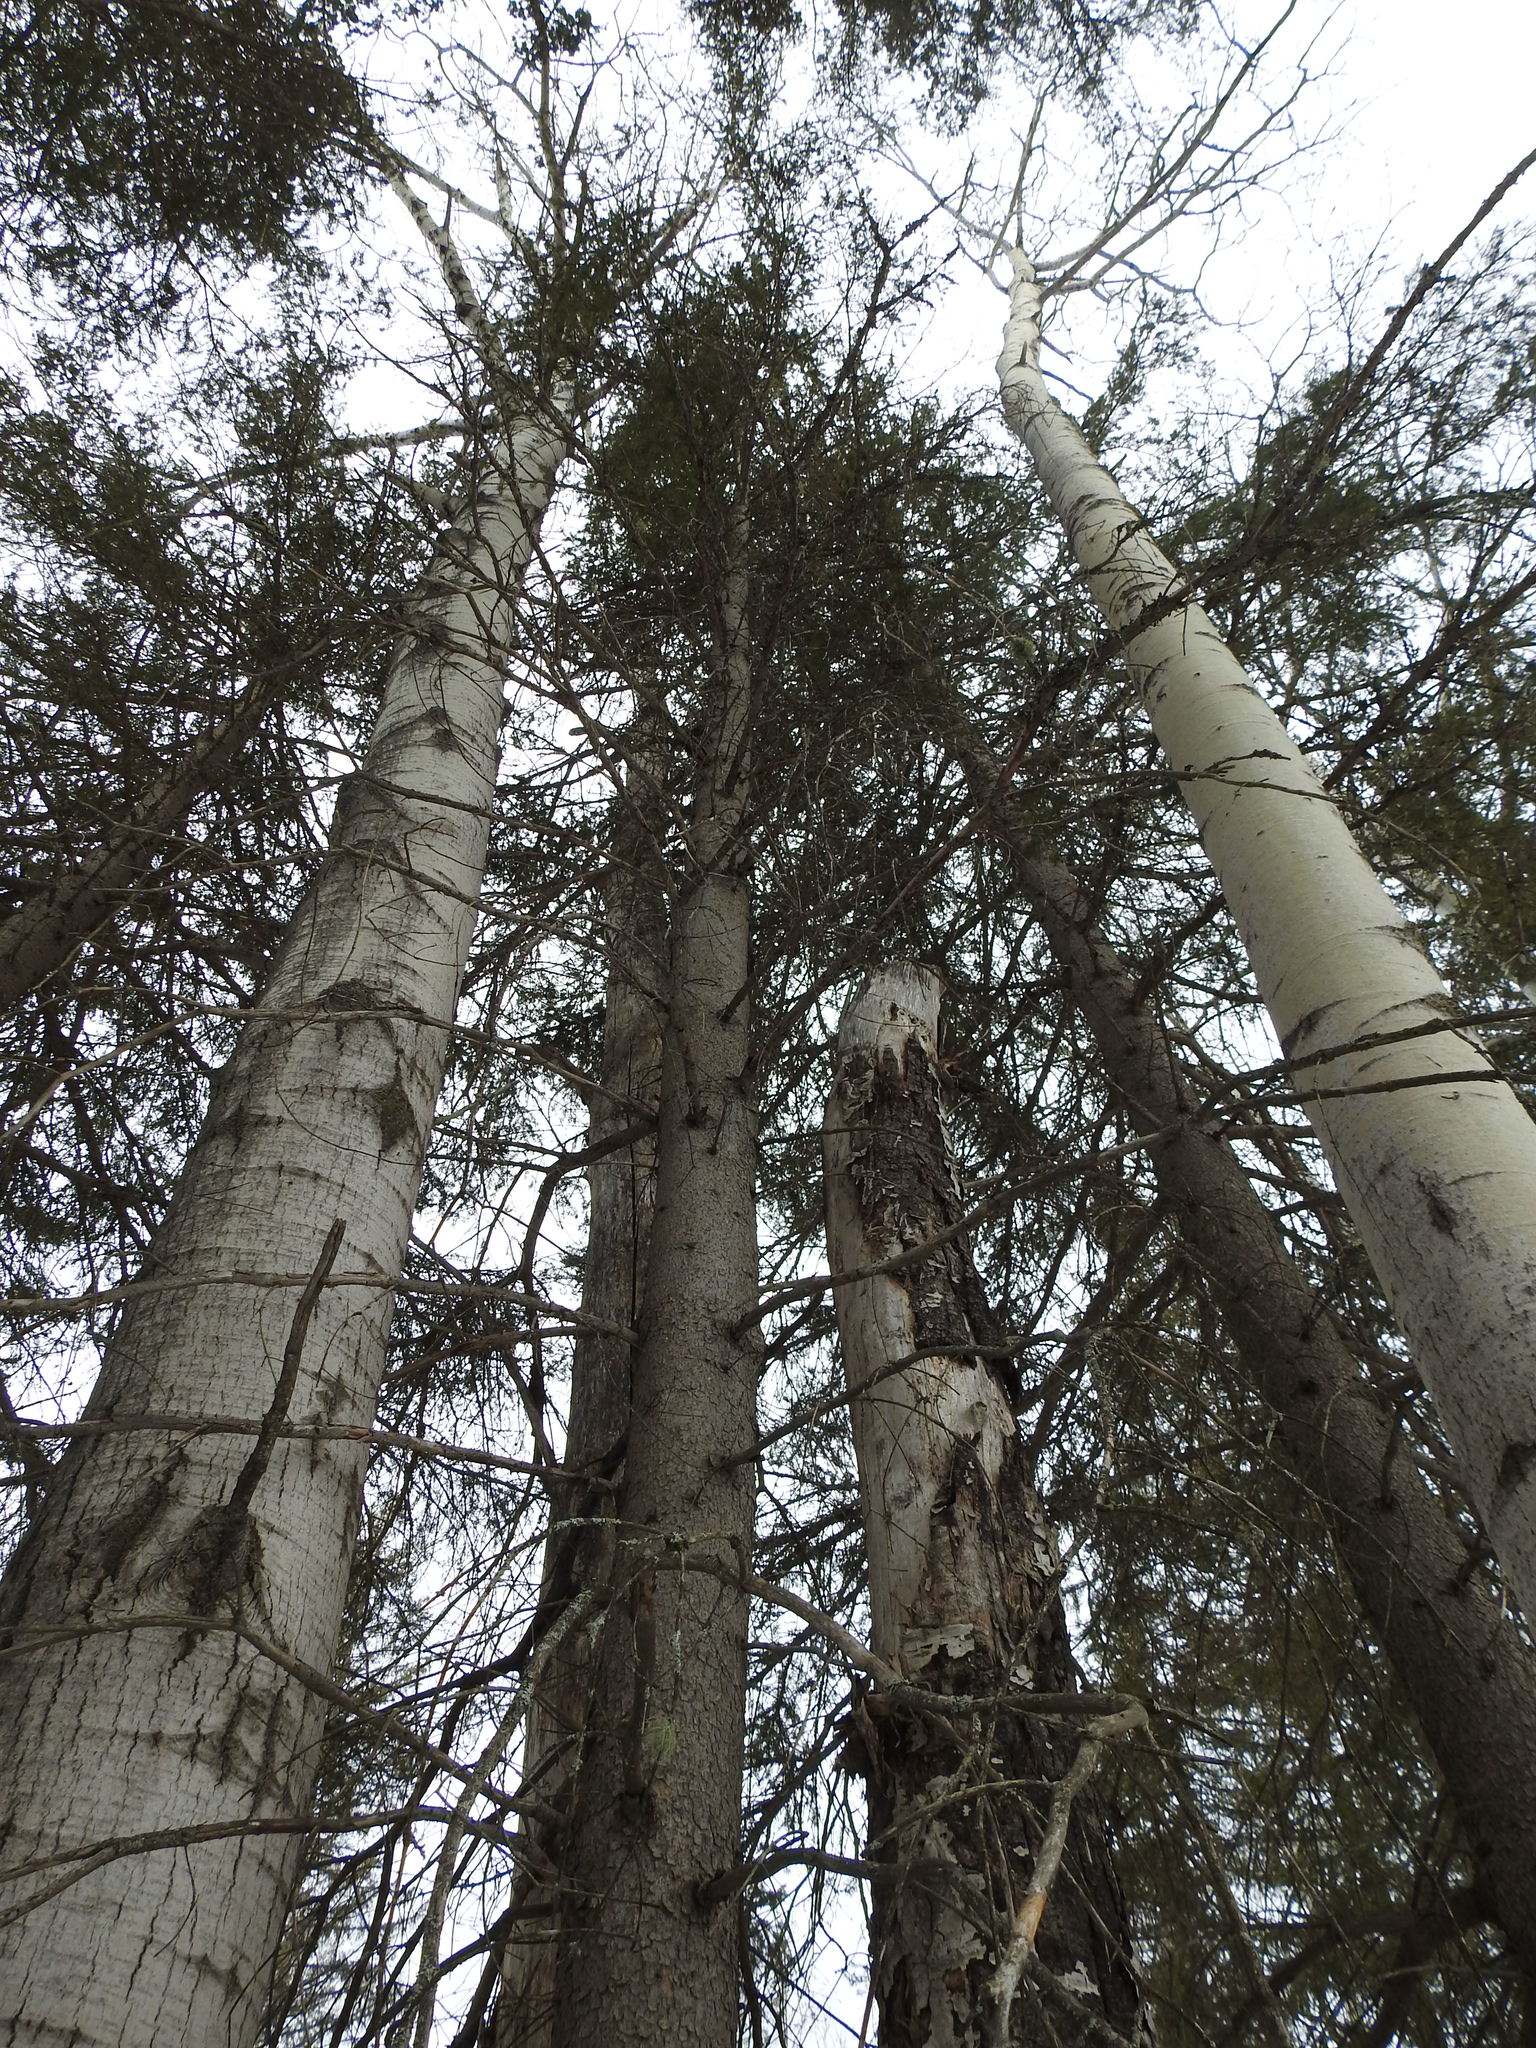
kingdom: Plantae
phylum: Tracheophyta
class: Pinopsida
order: Pinales
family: Pinaceae
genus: Picea
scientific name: Picea glauca
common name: White spruce
